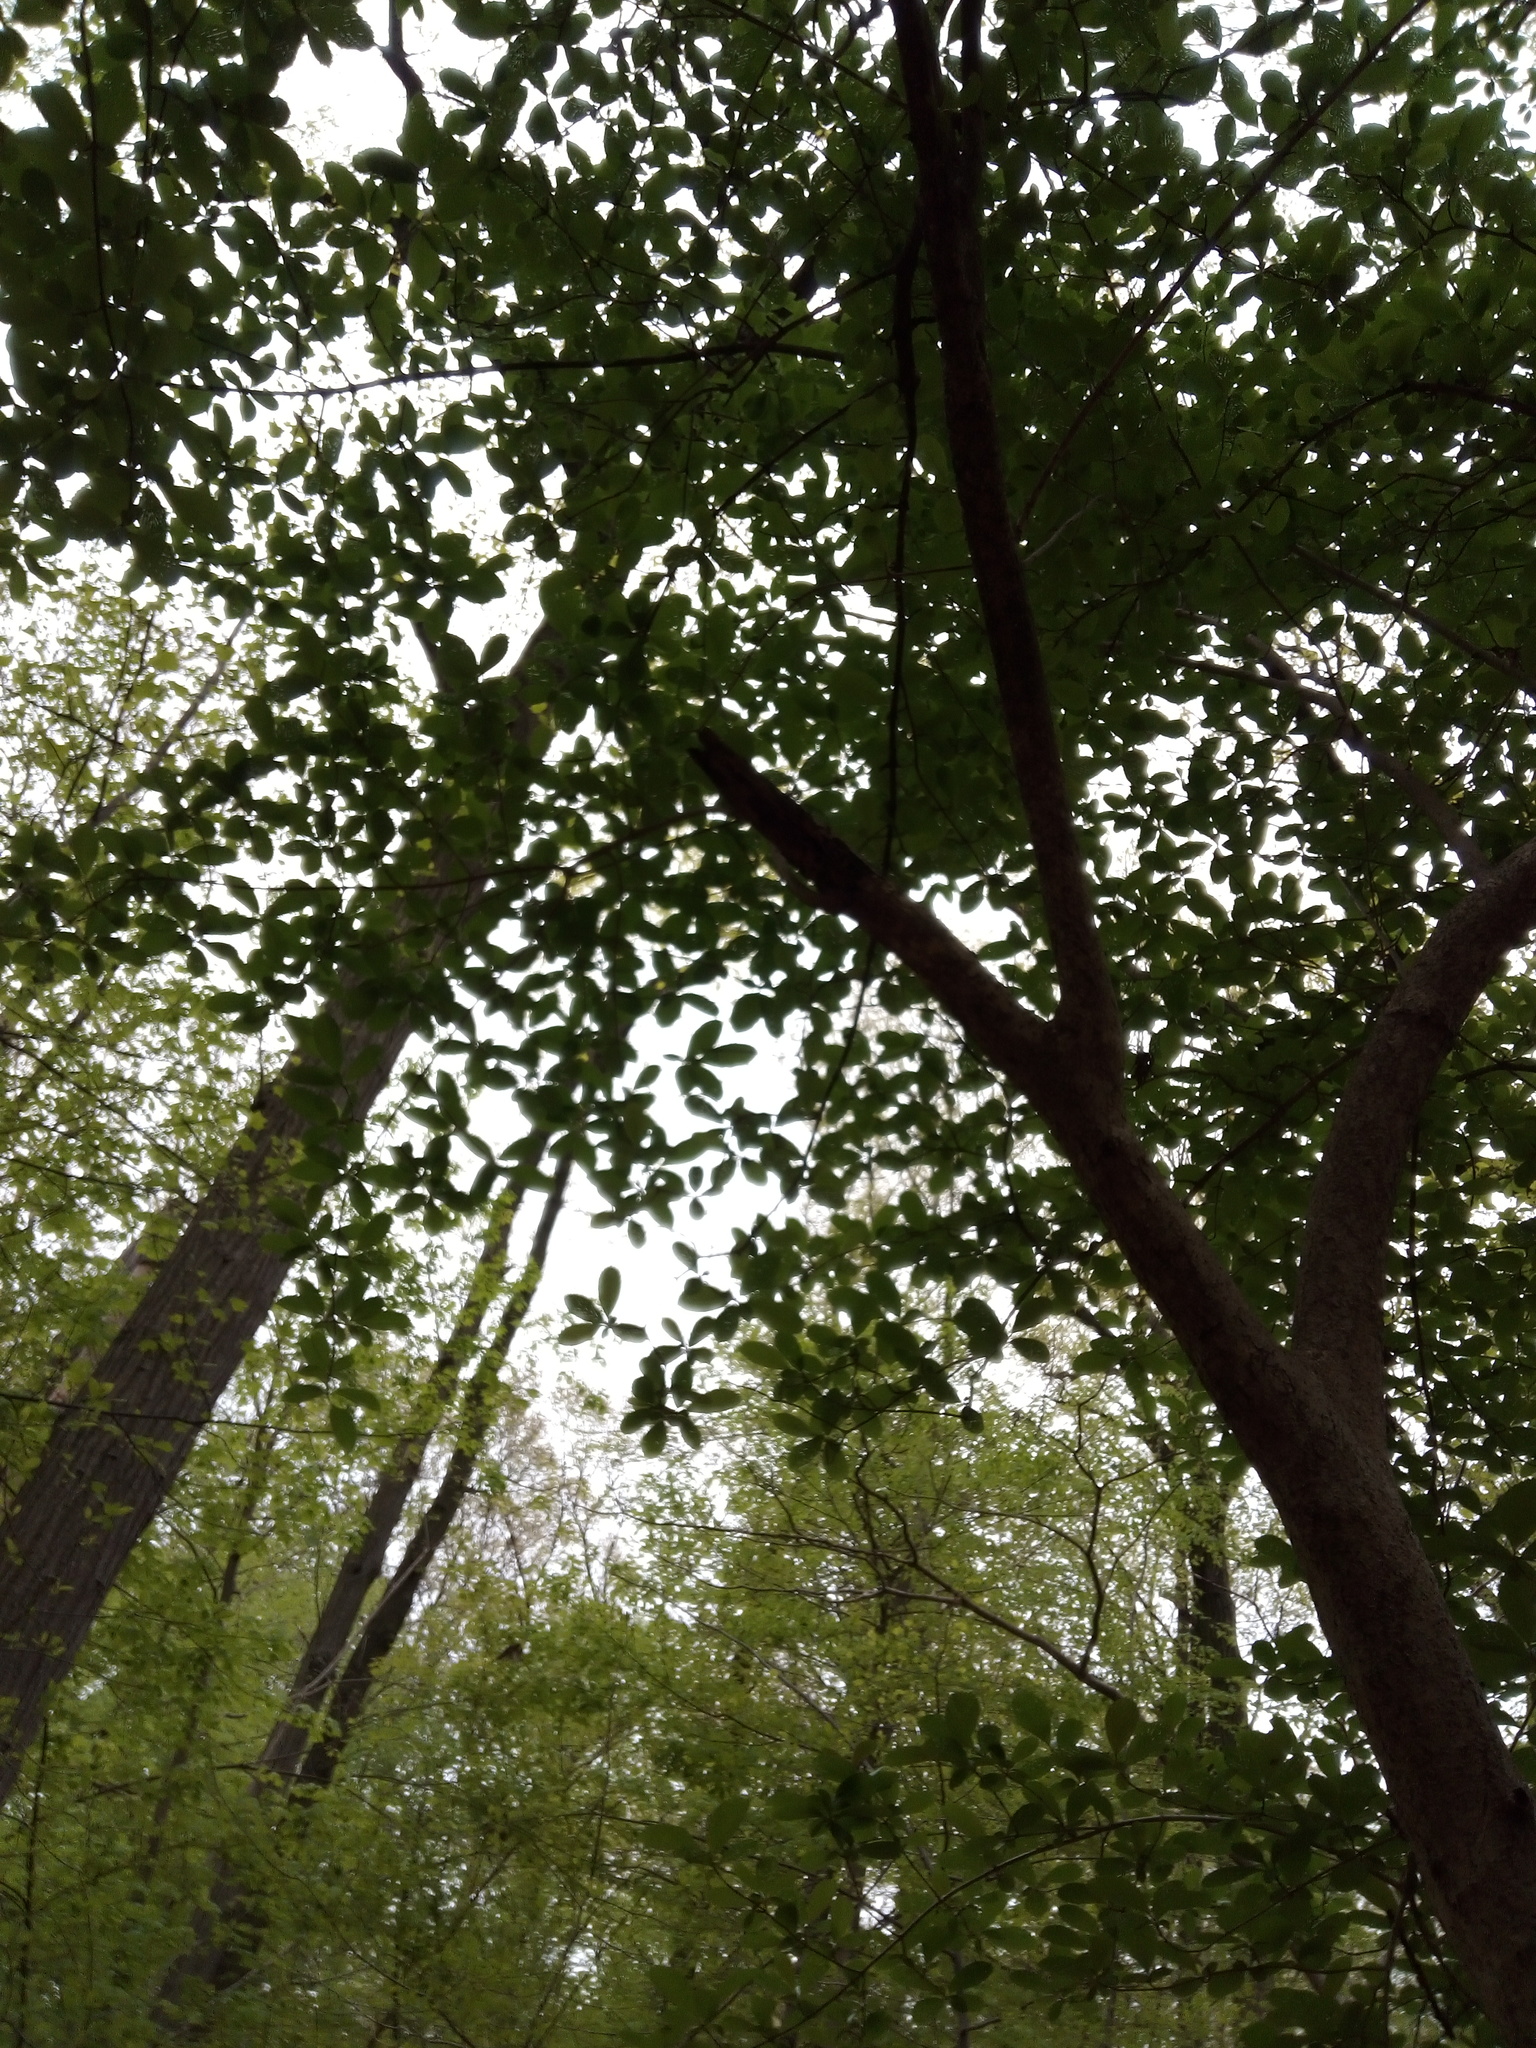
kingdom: Plantae
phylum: Tracheophyta
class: Magnoliopsida
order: Dipsacales
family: Viburnaceae
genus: Viburnum
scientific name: Viburnum sieboldii
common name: Siebold's arrowwood
